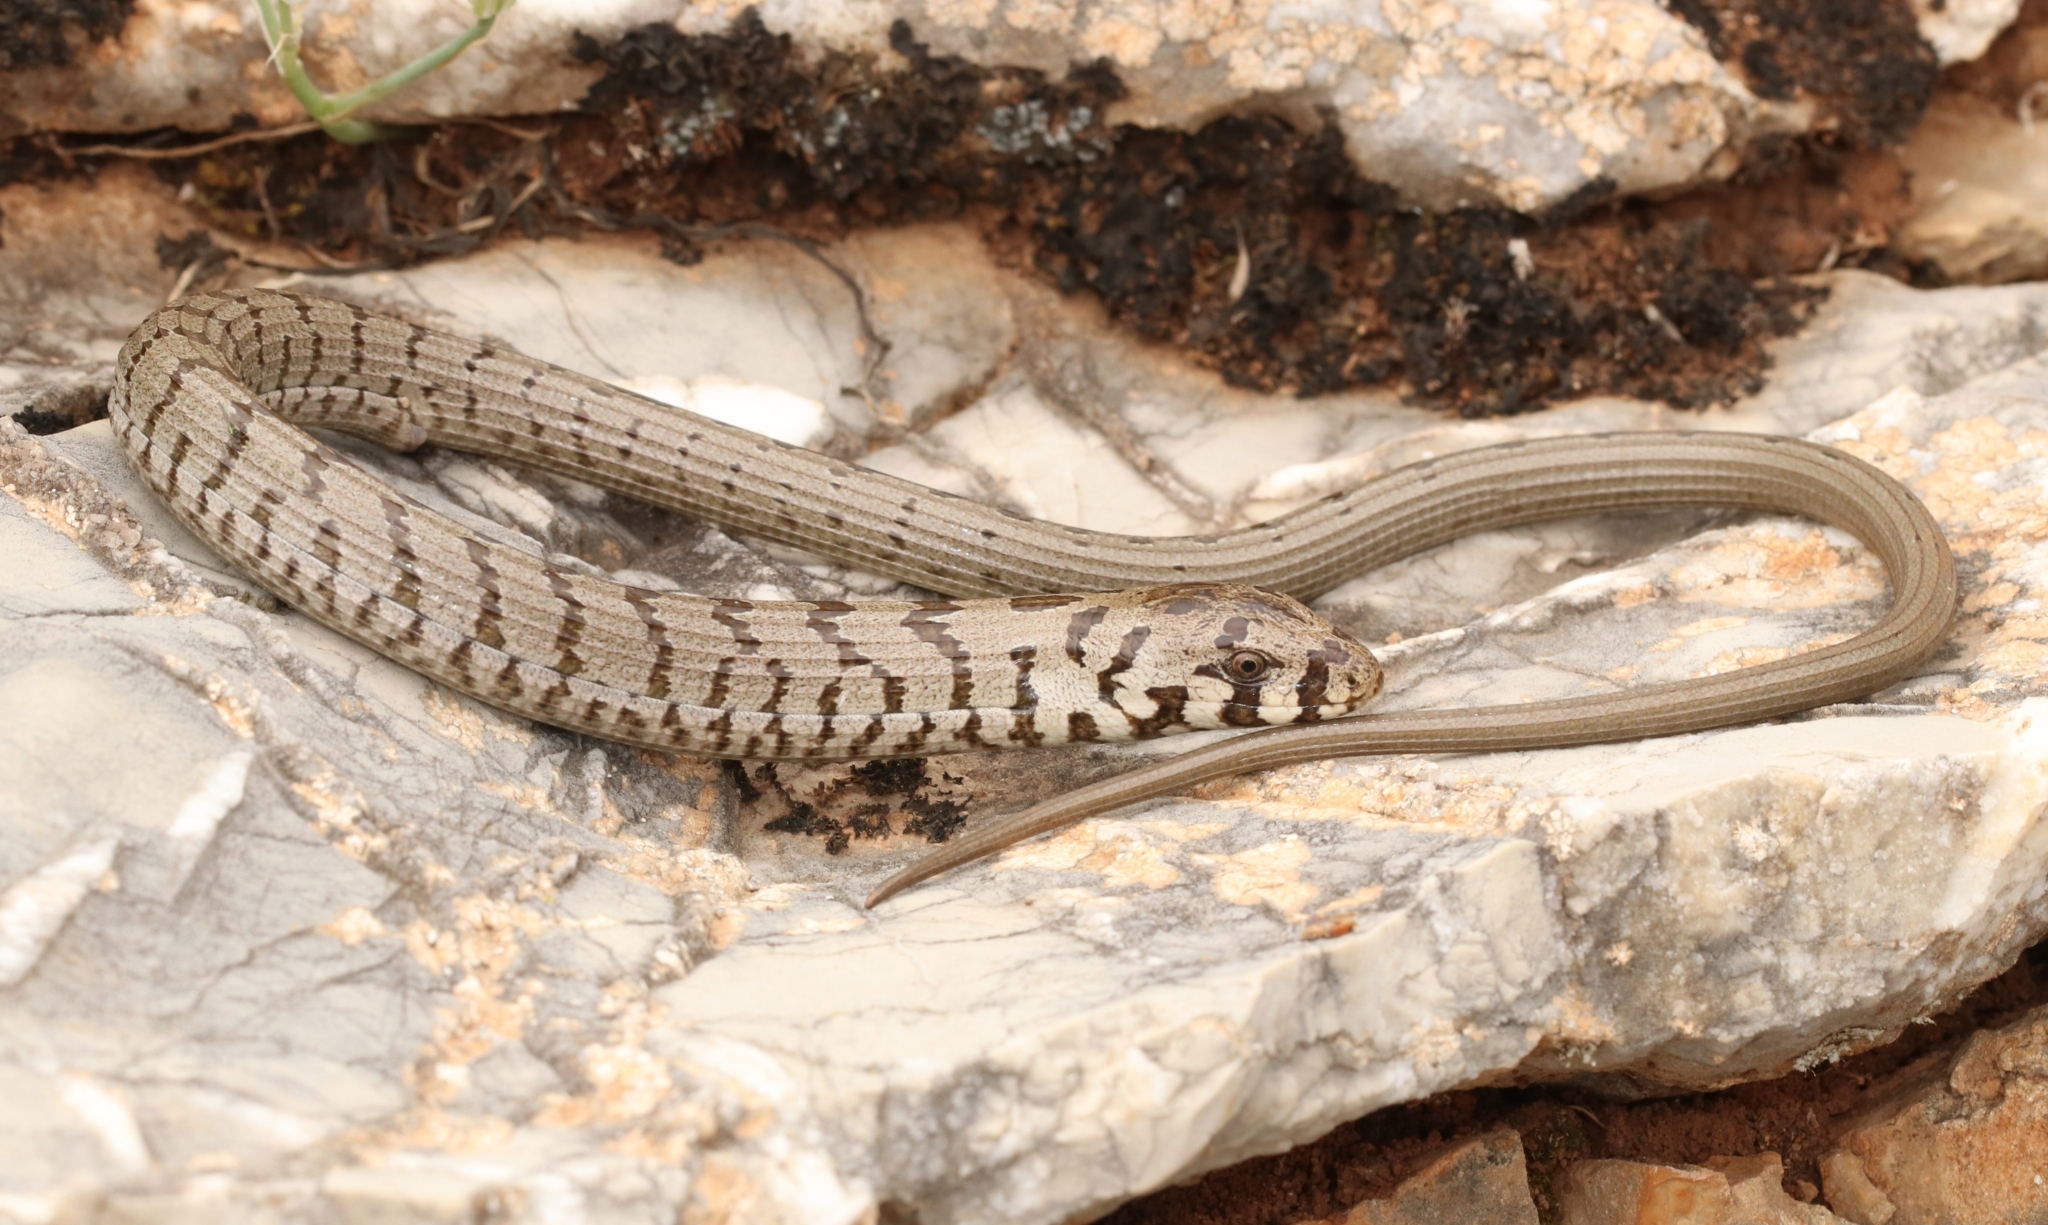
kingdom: Animalia
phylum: Chordata
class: Squamata
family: Anguidae
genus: Pseudopus
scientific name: Pseudopus apodus
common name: European glass lizard
